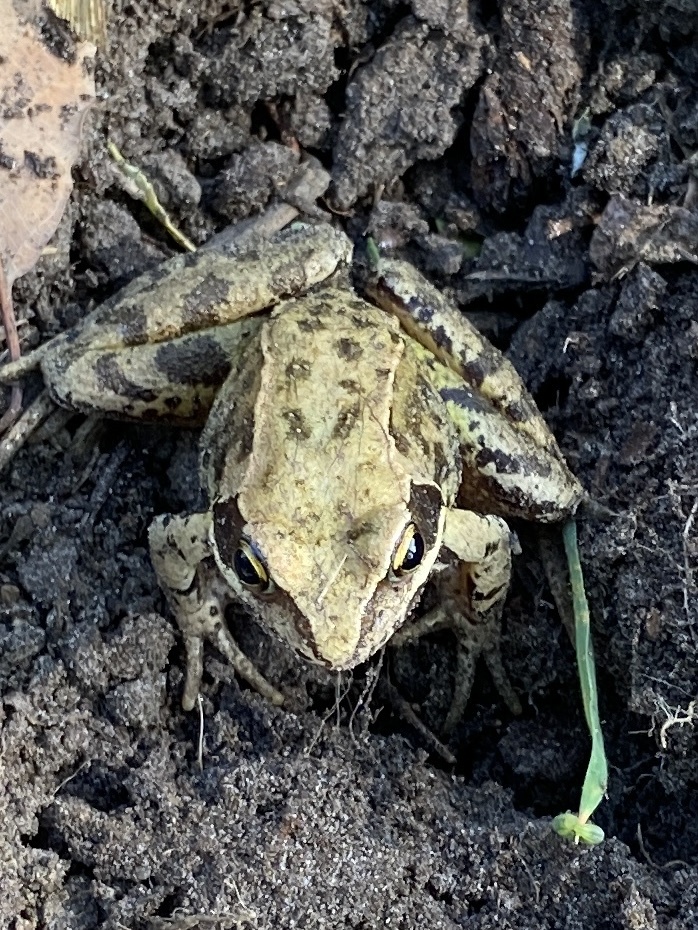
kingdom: Animalia
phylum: Chordata
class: Amphibia
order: Anura
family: Ranidae
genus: Rana
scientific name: Rana temporaria
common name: Common frog
